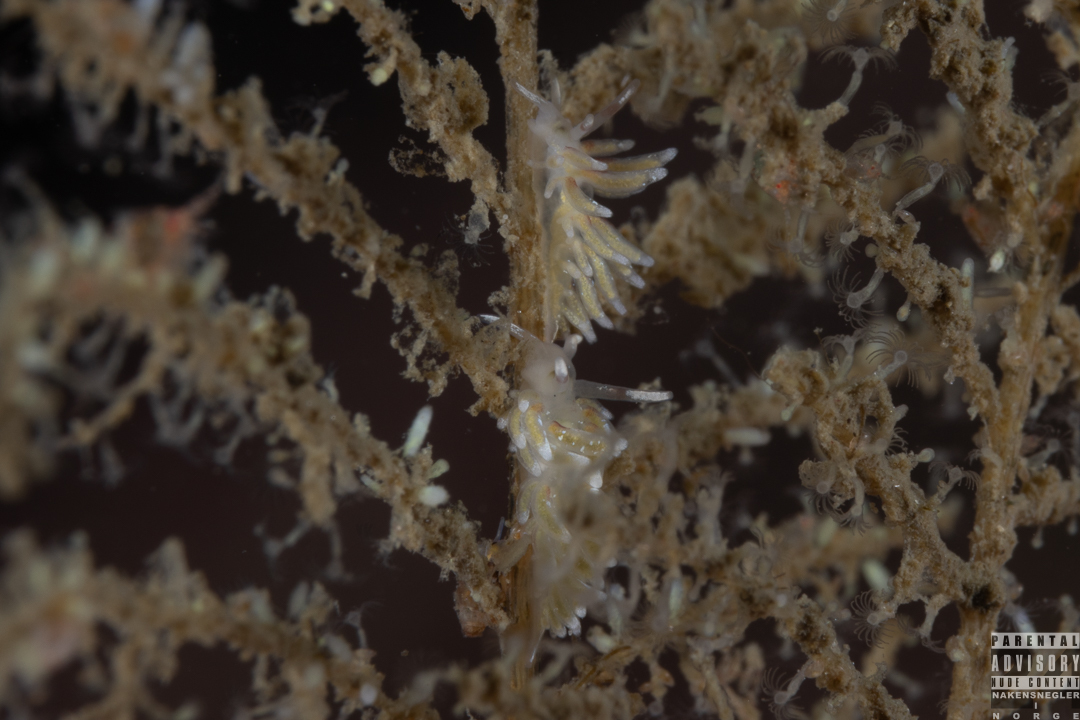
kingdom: Animalia
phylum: Mollusca
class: Gastropoda
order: Nudibranchia
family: Trinchesiidae
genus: Rubramoena
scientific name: Rubramoena rubescens
